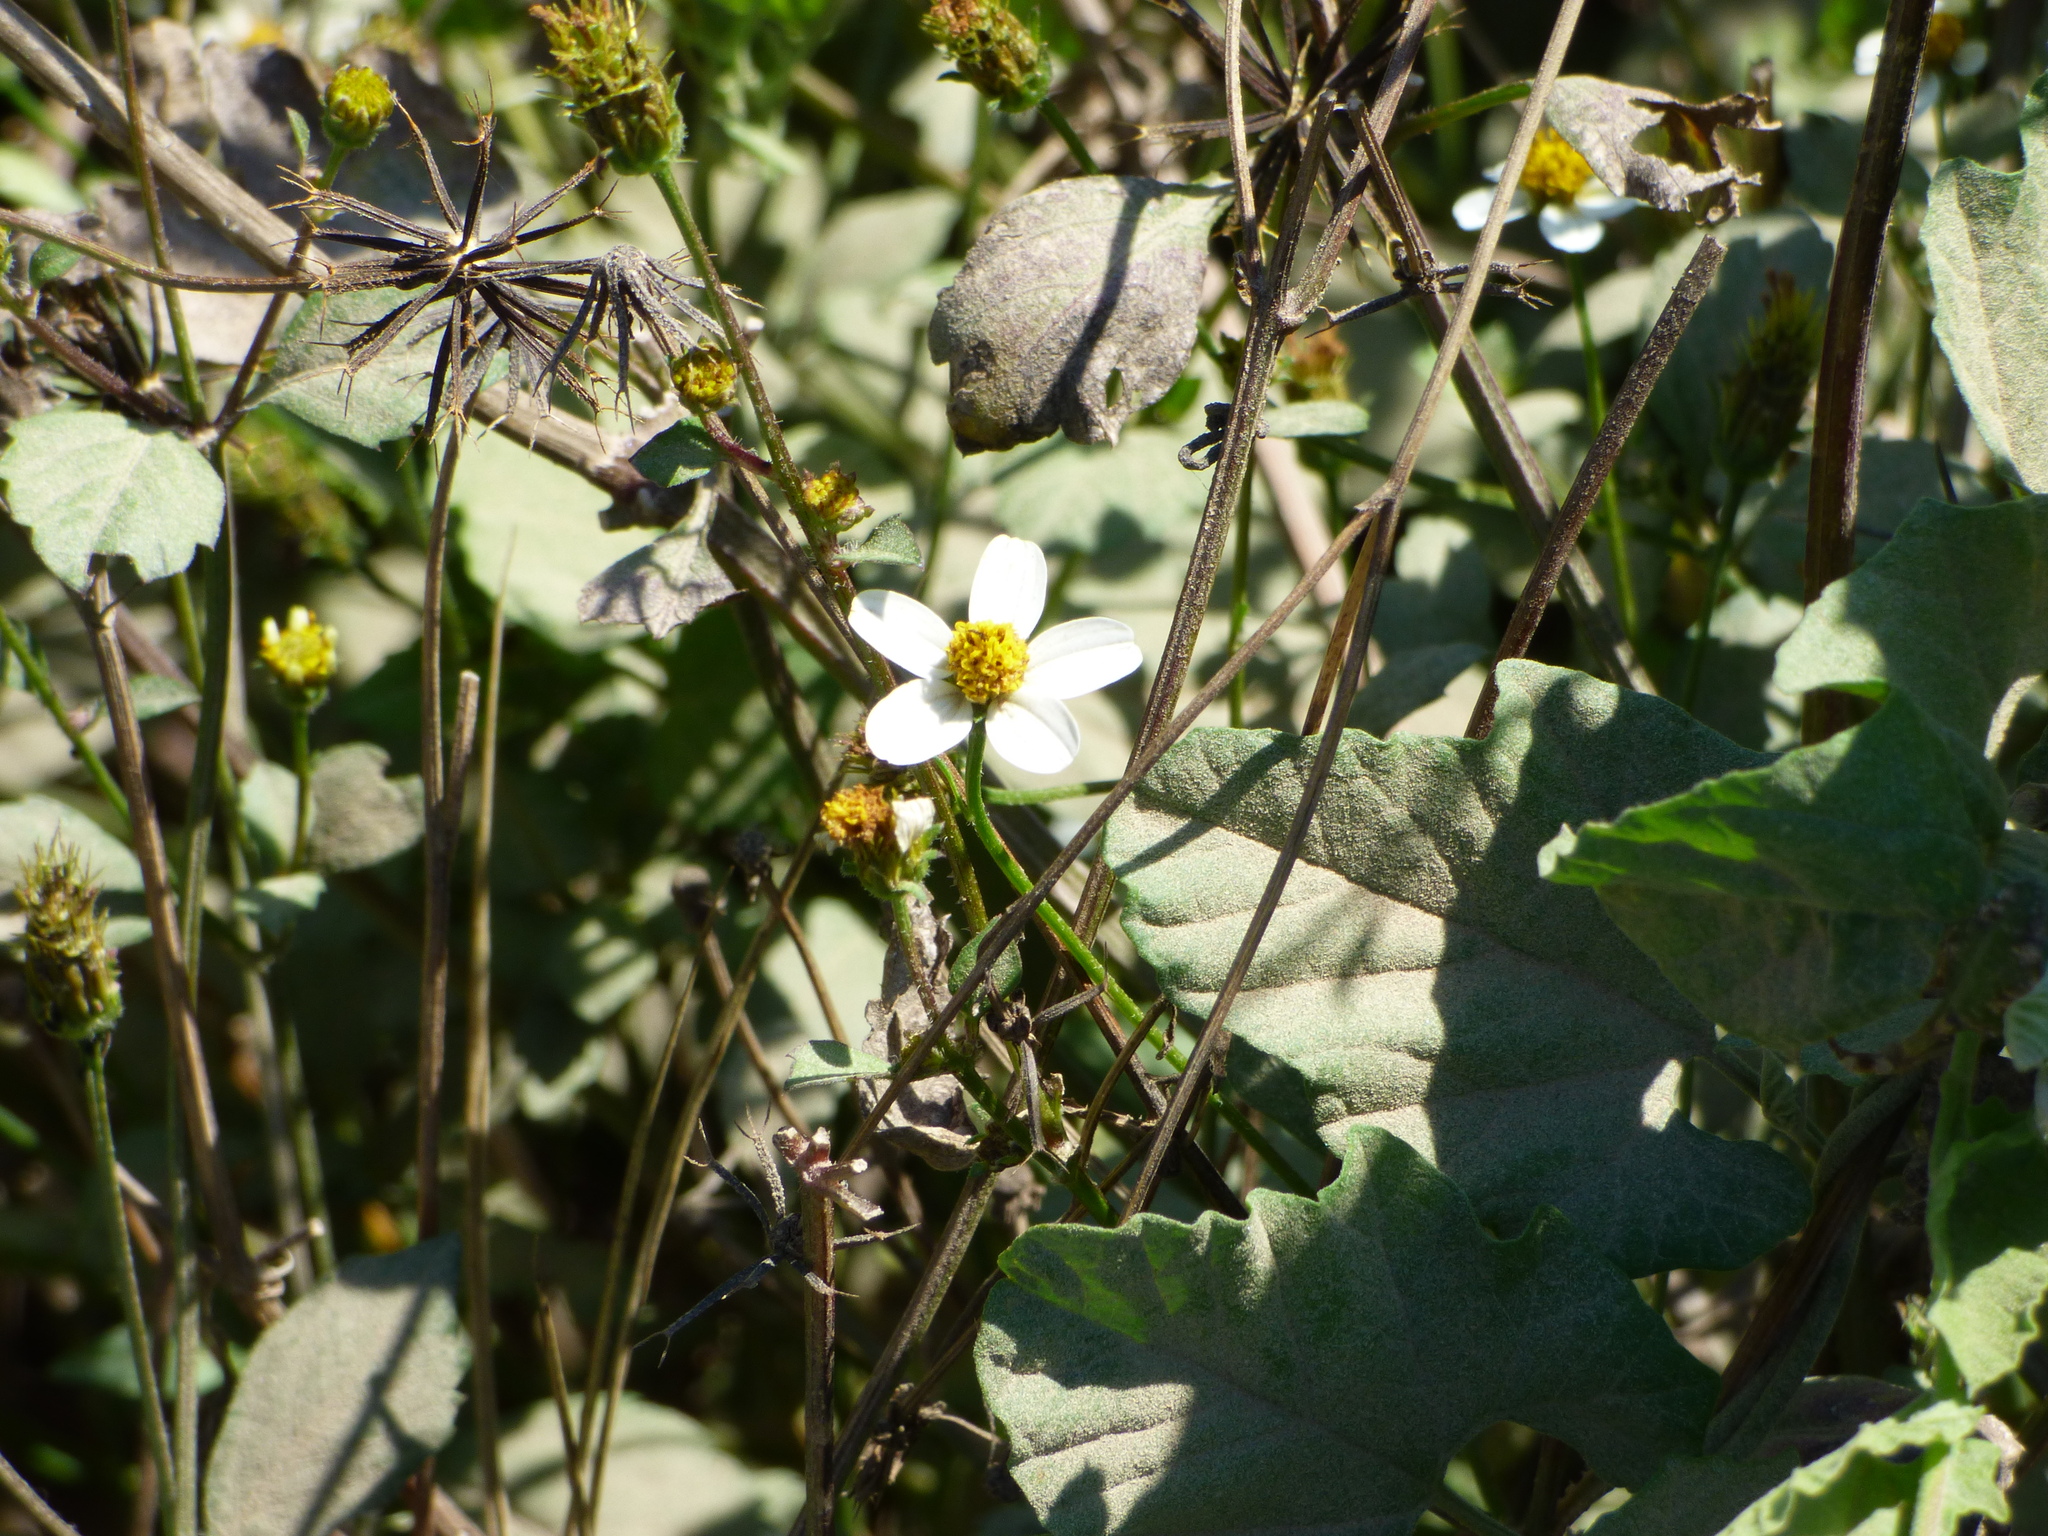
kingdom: Plantae
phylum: Tracheophyta
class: Magnoliopsida
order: Asterales
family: Asteraceae
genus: Bidens
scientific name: Bidens pilosa
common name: Black-jack
